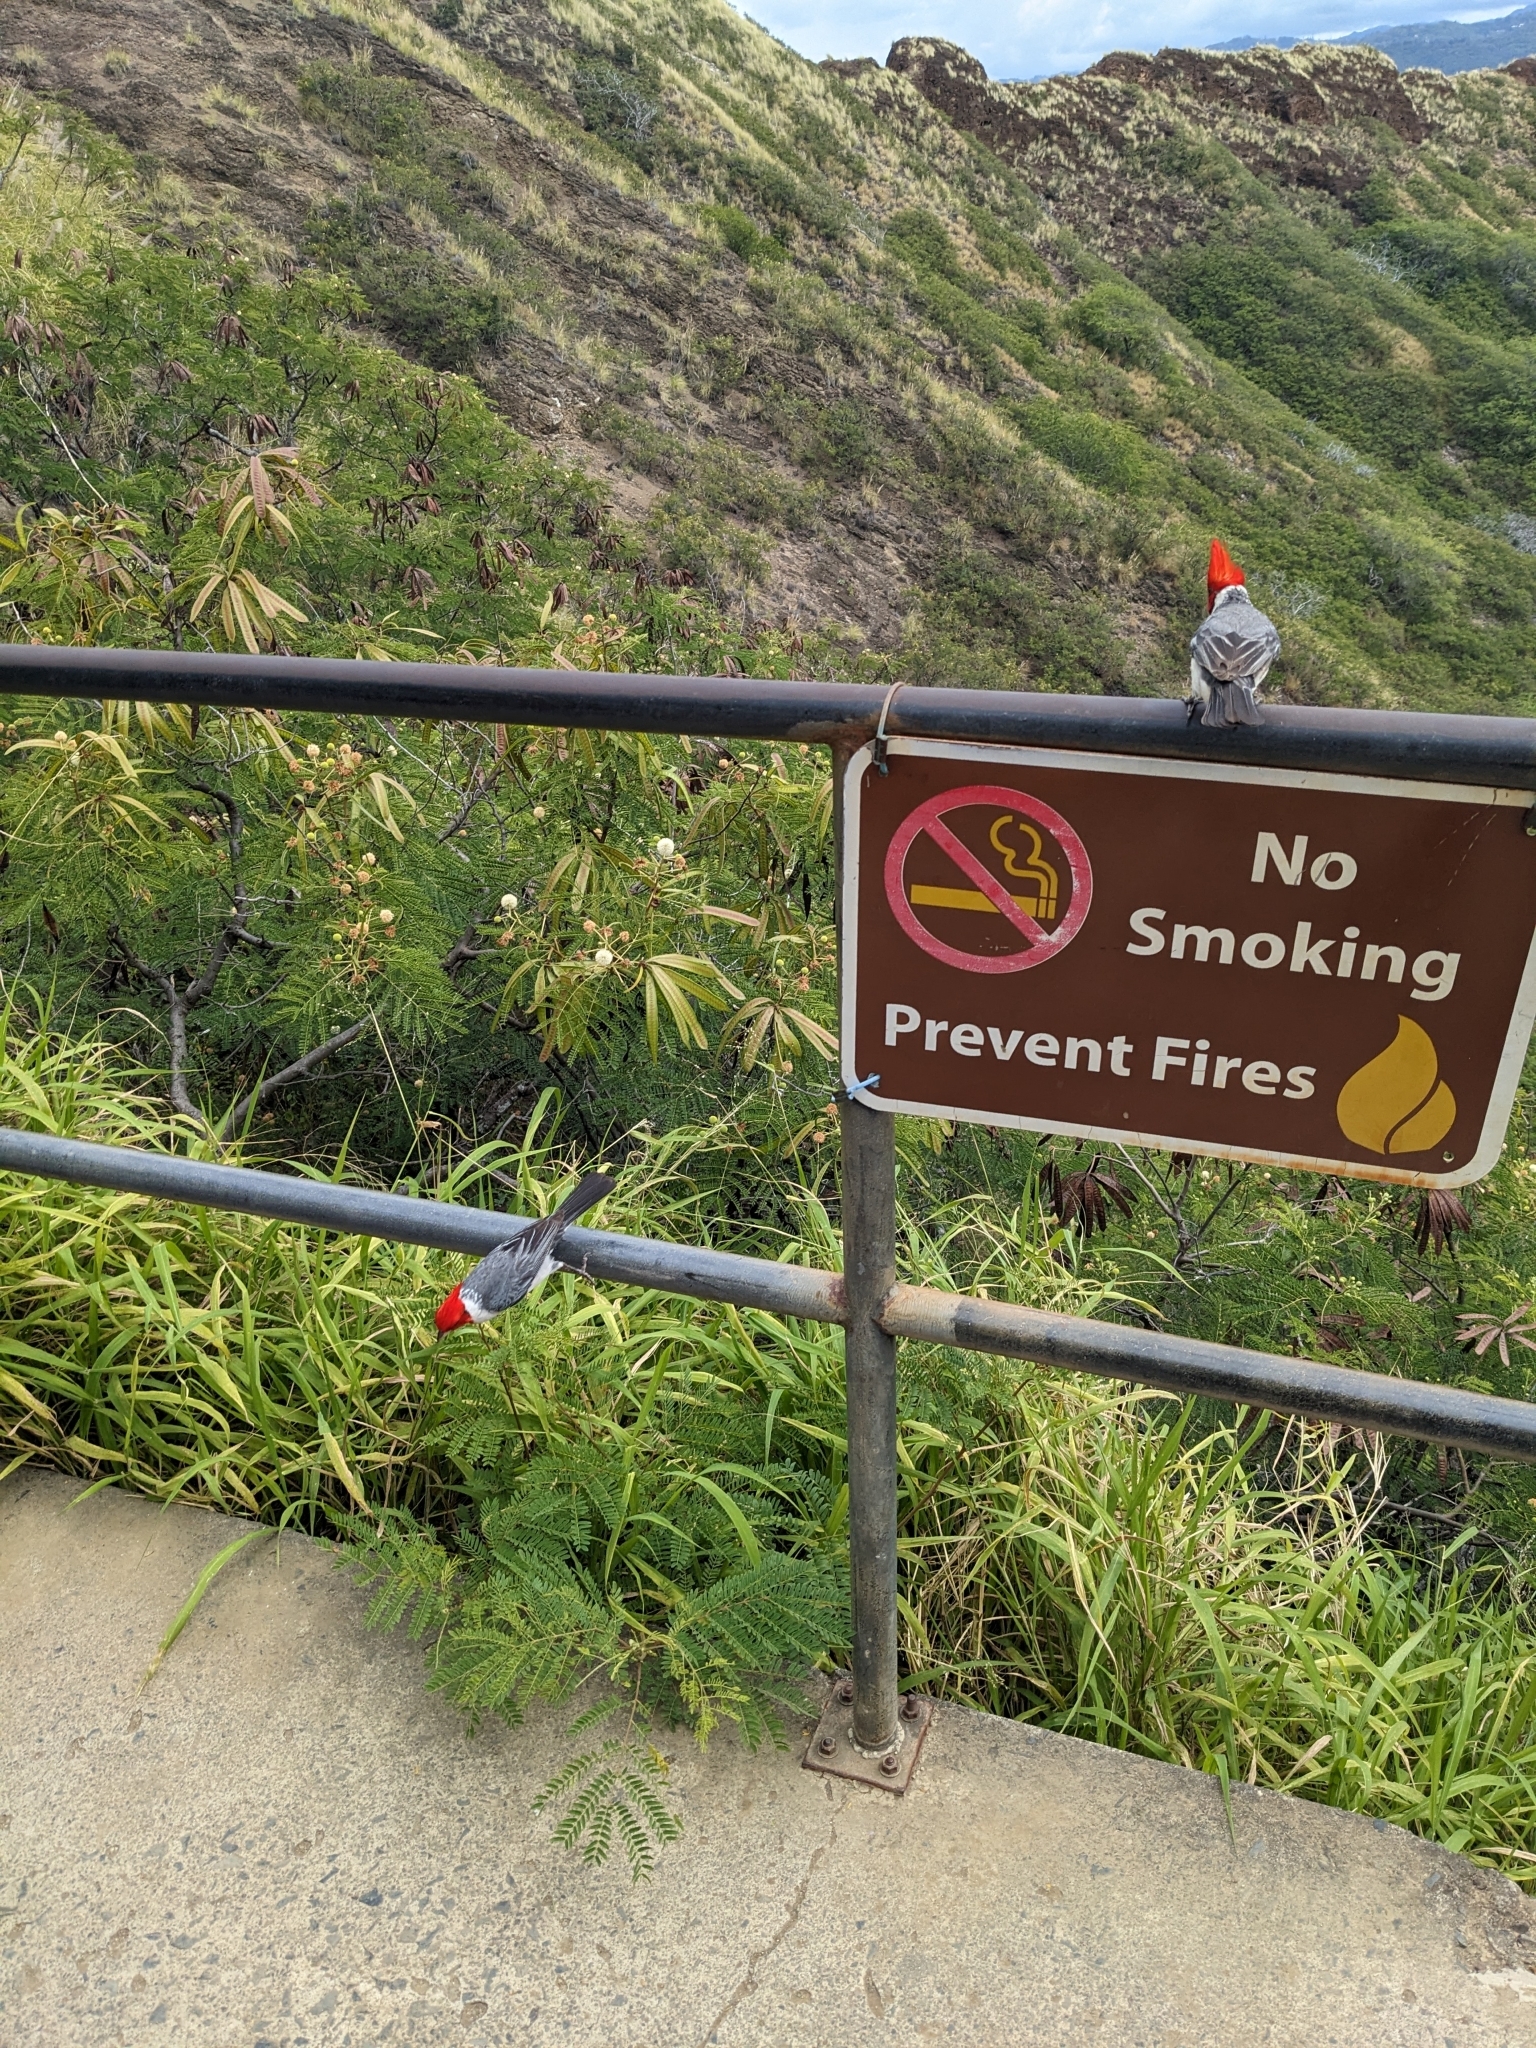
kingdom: Animalia
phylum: Chordata
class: Aves
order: Passeriformes
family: Thraupidae
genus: Paroaria
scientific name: Paroaria coronata
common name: Red-crested cardinal
